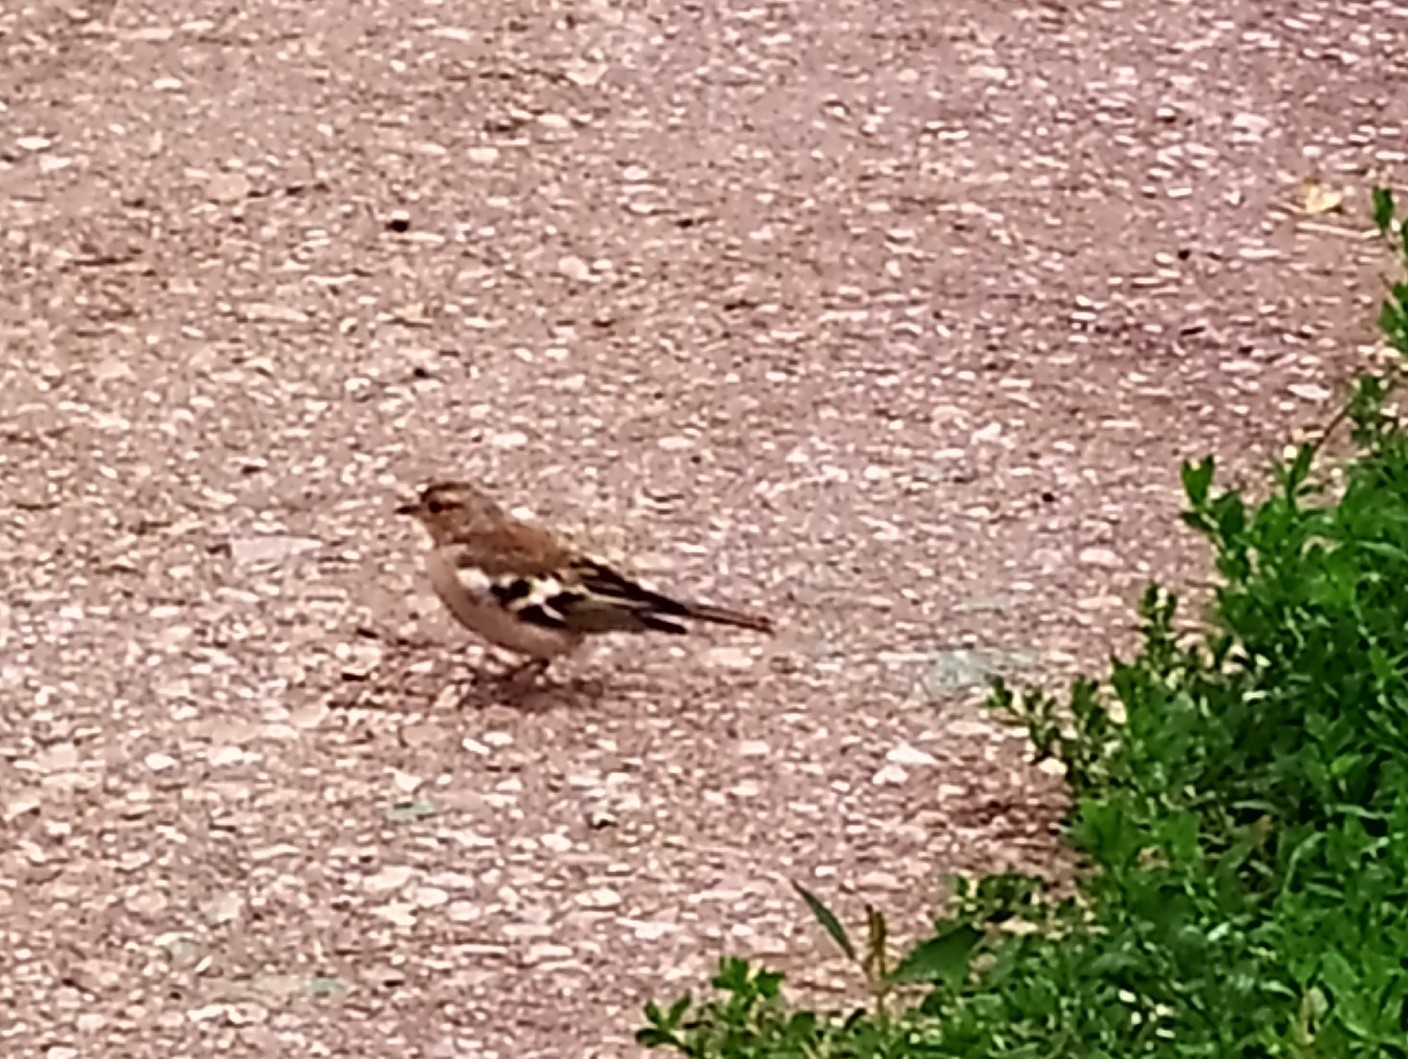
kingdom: Animalia
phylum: Chordata
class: Aves
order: Passeriformes
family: Fringillidae
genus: Fringilla
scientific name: Fringilla coelebs
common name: Common chaffinch
